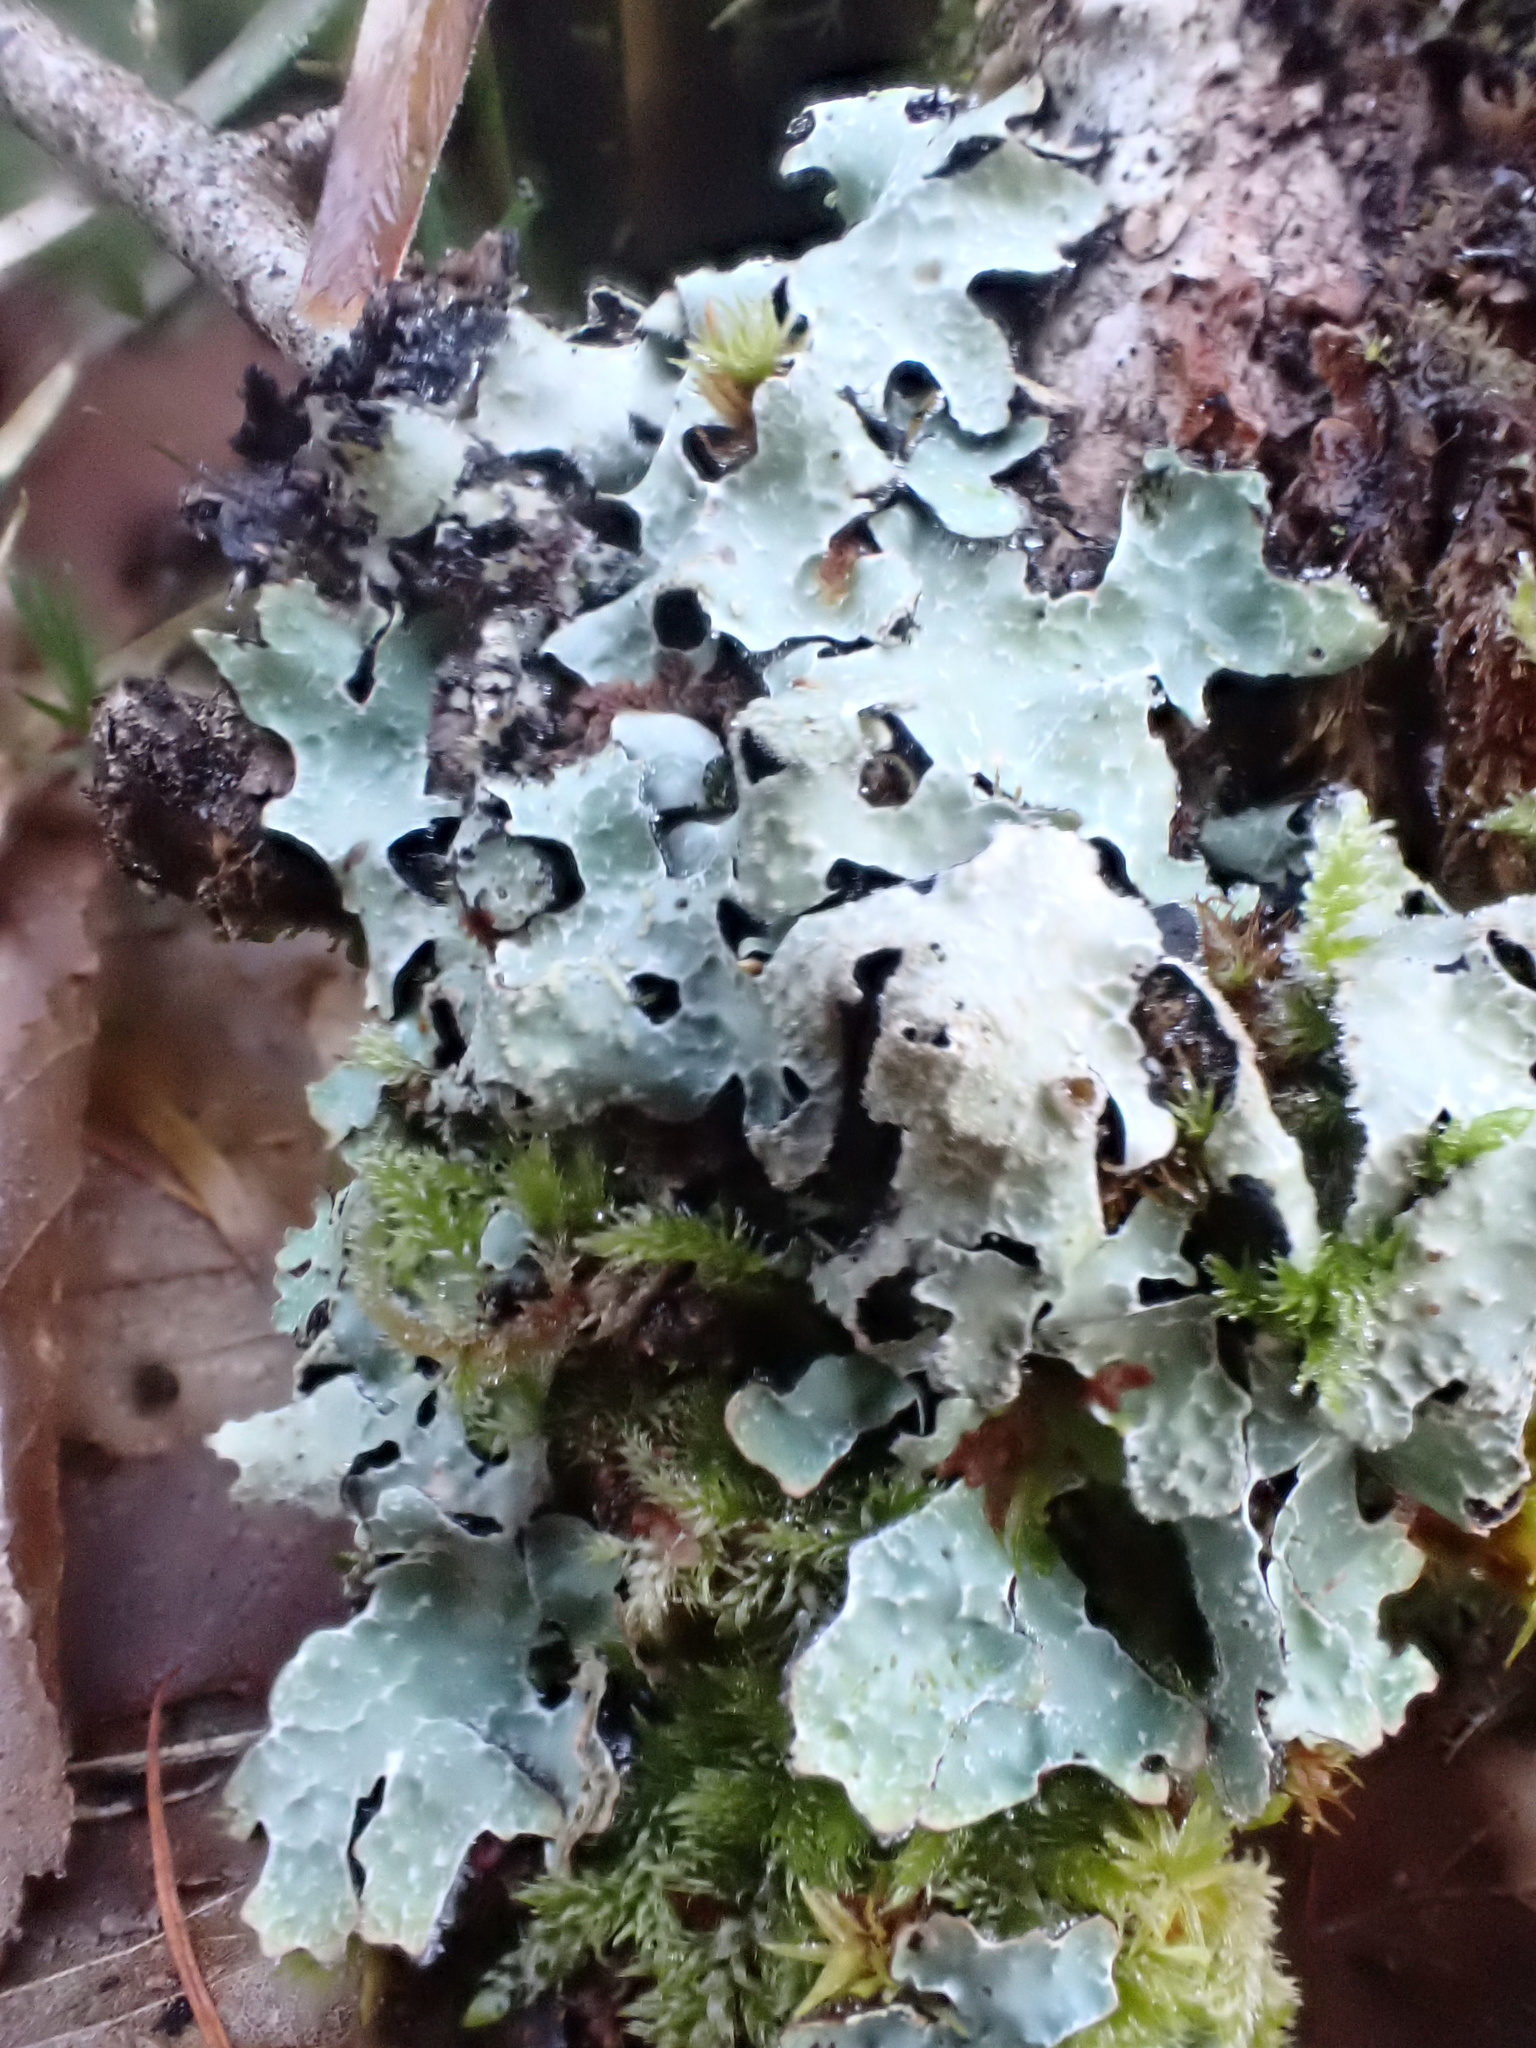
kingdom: Fungi
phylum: Ascomycota
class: Lecanoromycetes
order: Lecanorales
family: Parmeliaceae
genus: Parmelia
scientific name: Parmelia sulcata
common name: Netted shield lichen
